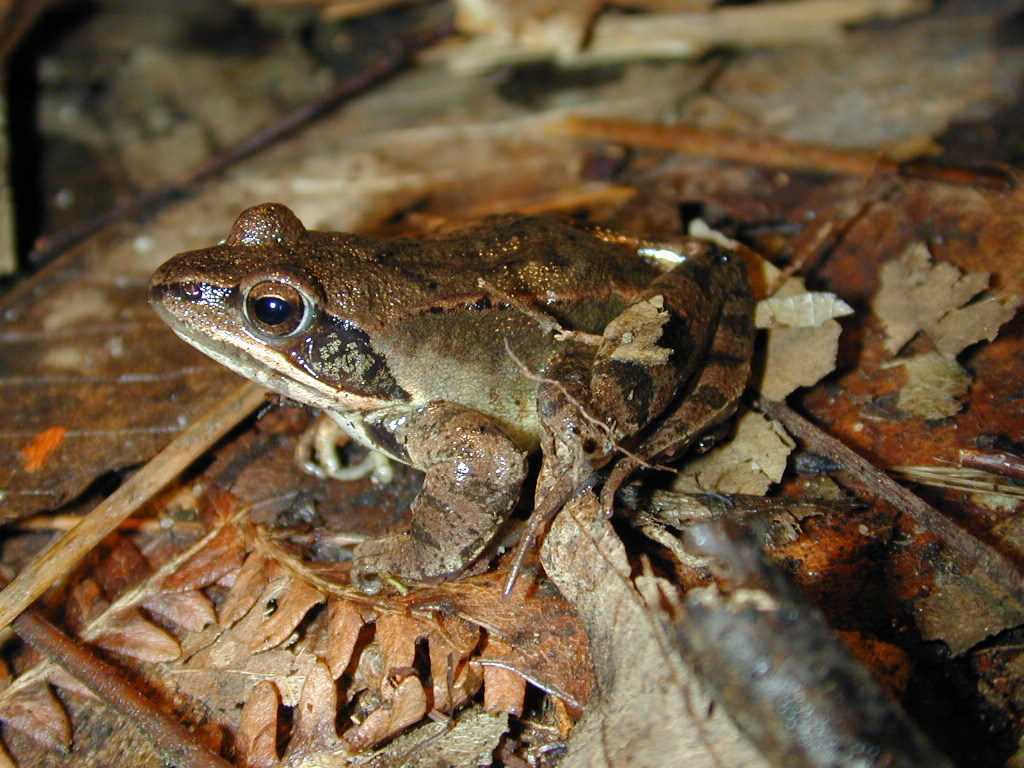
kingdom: Animalia
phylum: Chordata
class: Amphibia
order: Anura
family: Ranidae
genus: Rana
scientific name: Rana dalmatina
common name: Agile frog
